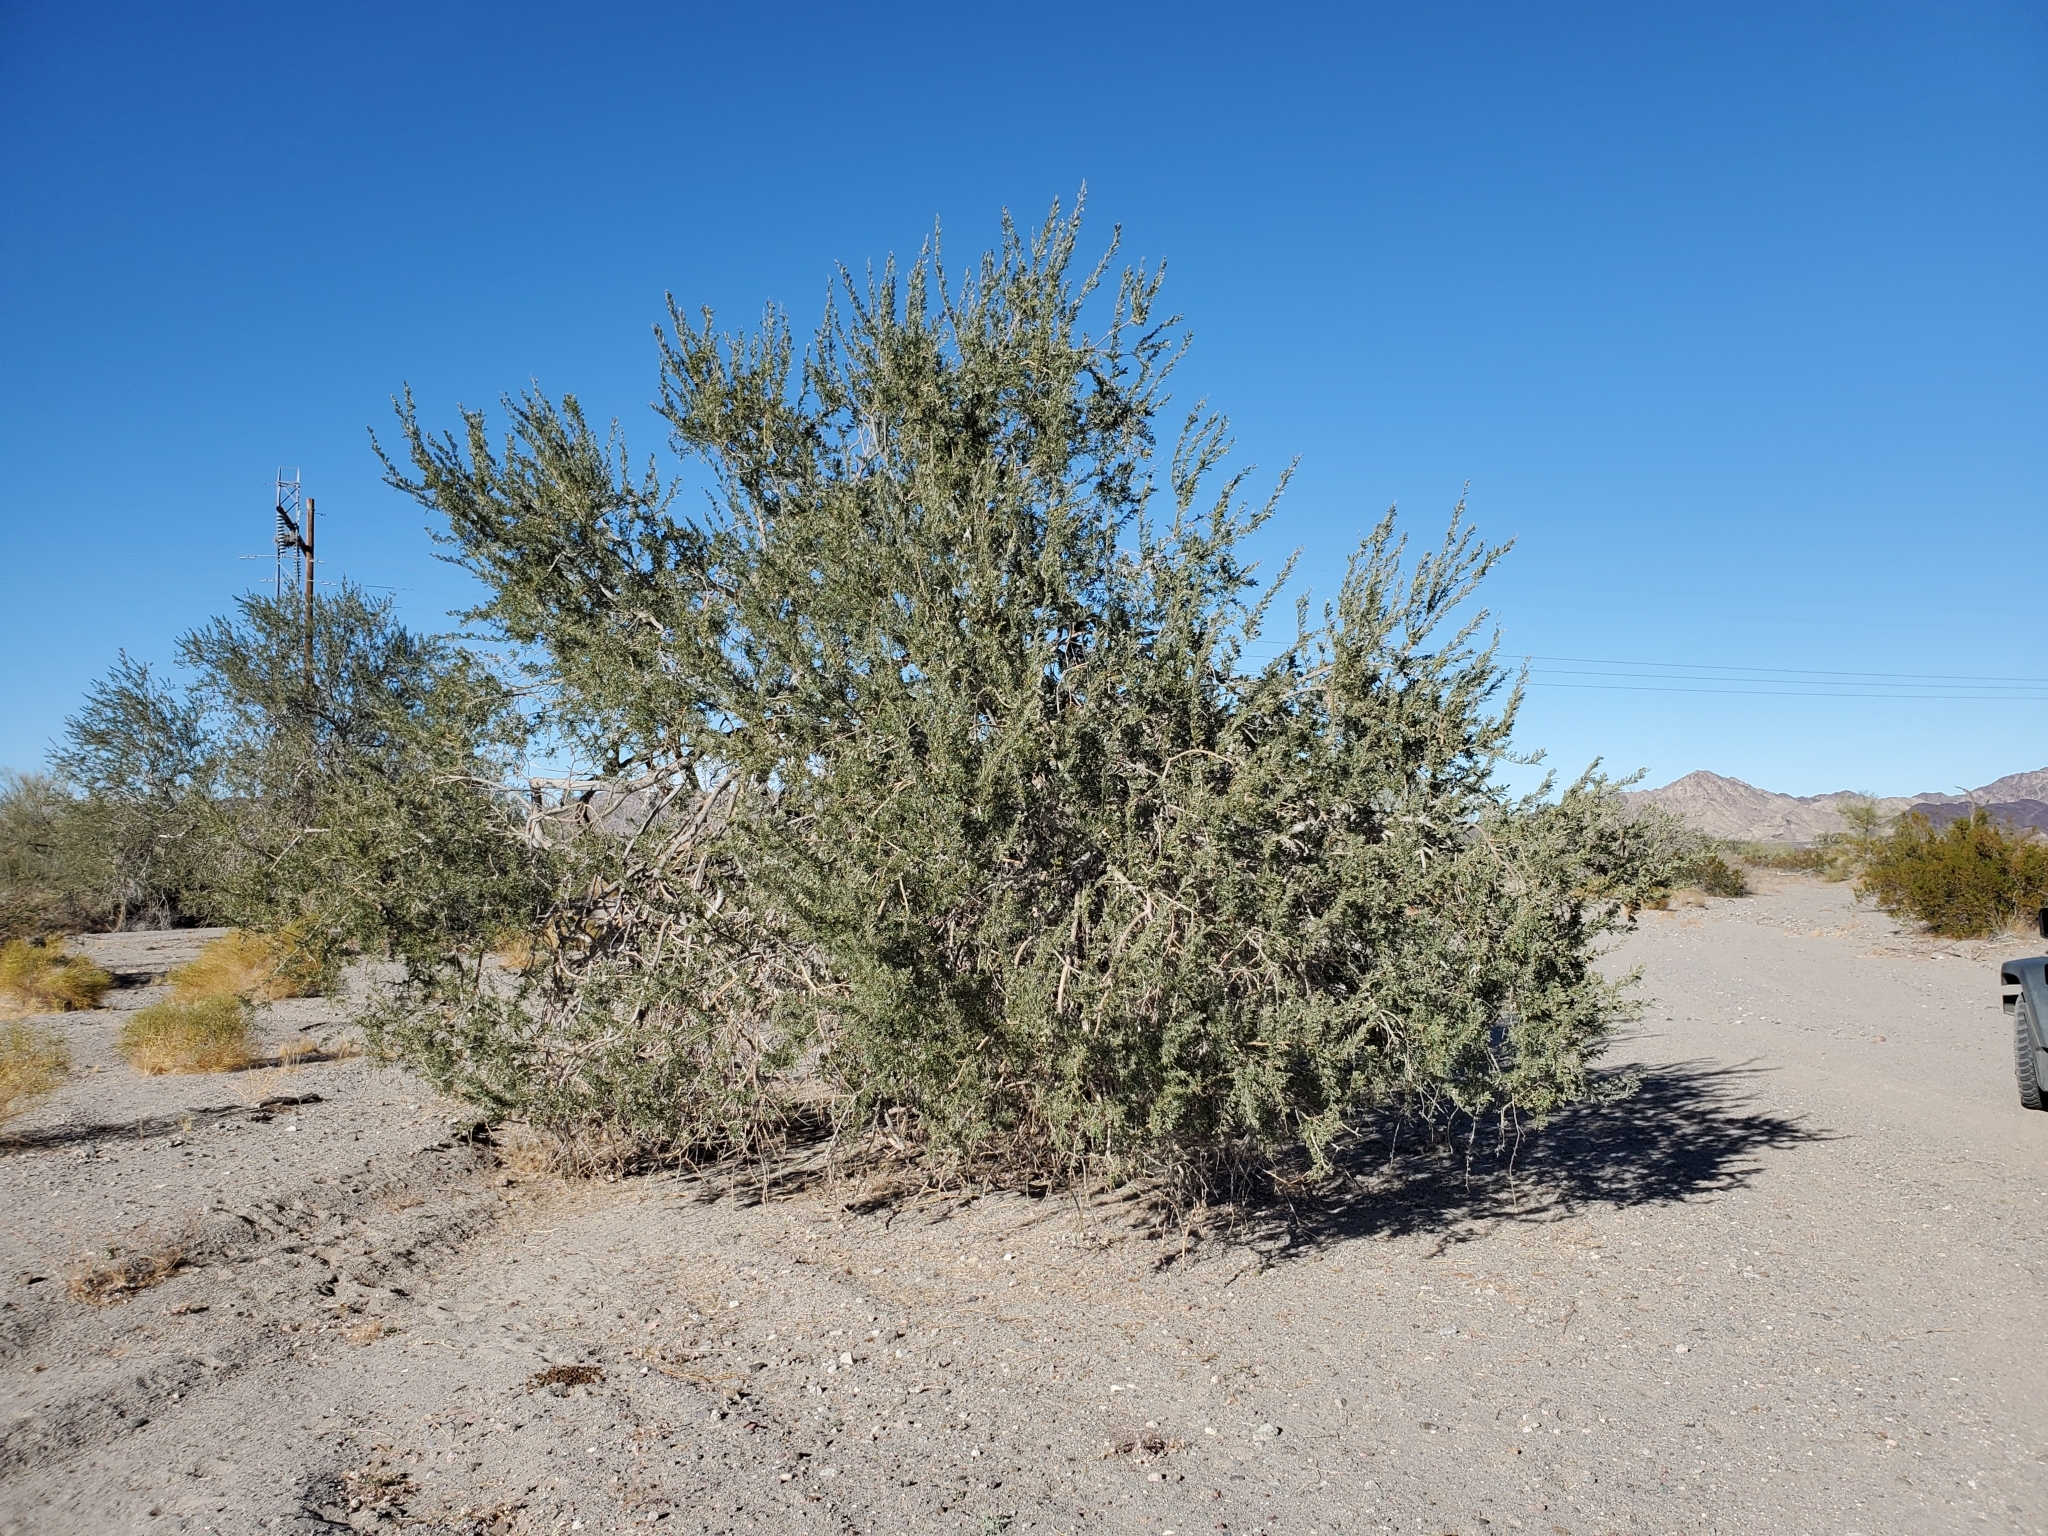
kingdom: Plantae
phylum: Tracheophyta
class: Magnoliopsida
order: Fabales
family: Fabaceae
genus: Olneya
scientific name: Olneya tesota
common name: Desert ironwood
